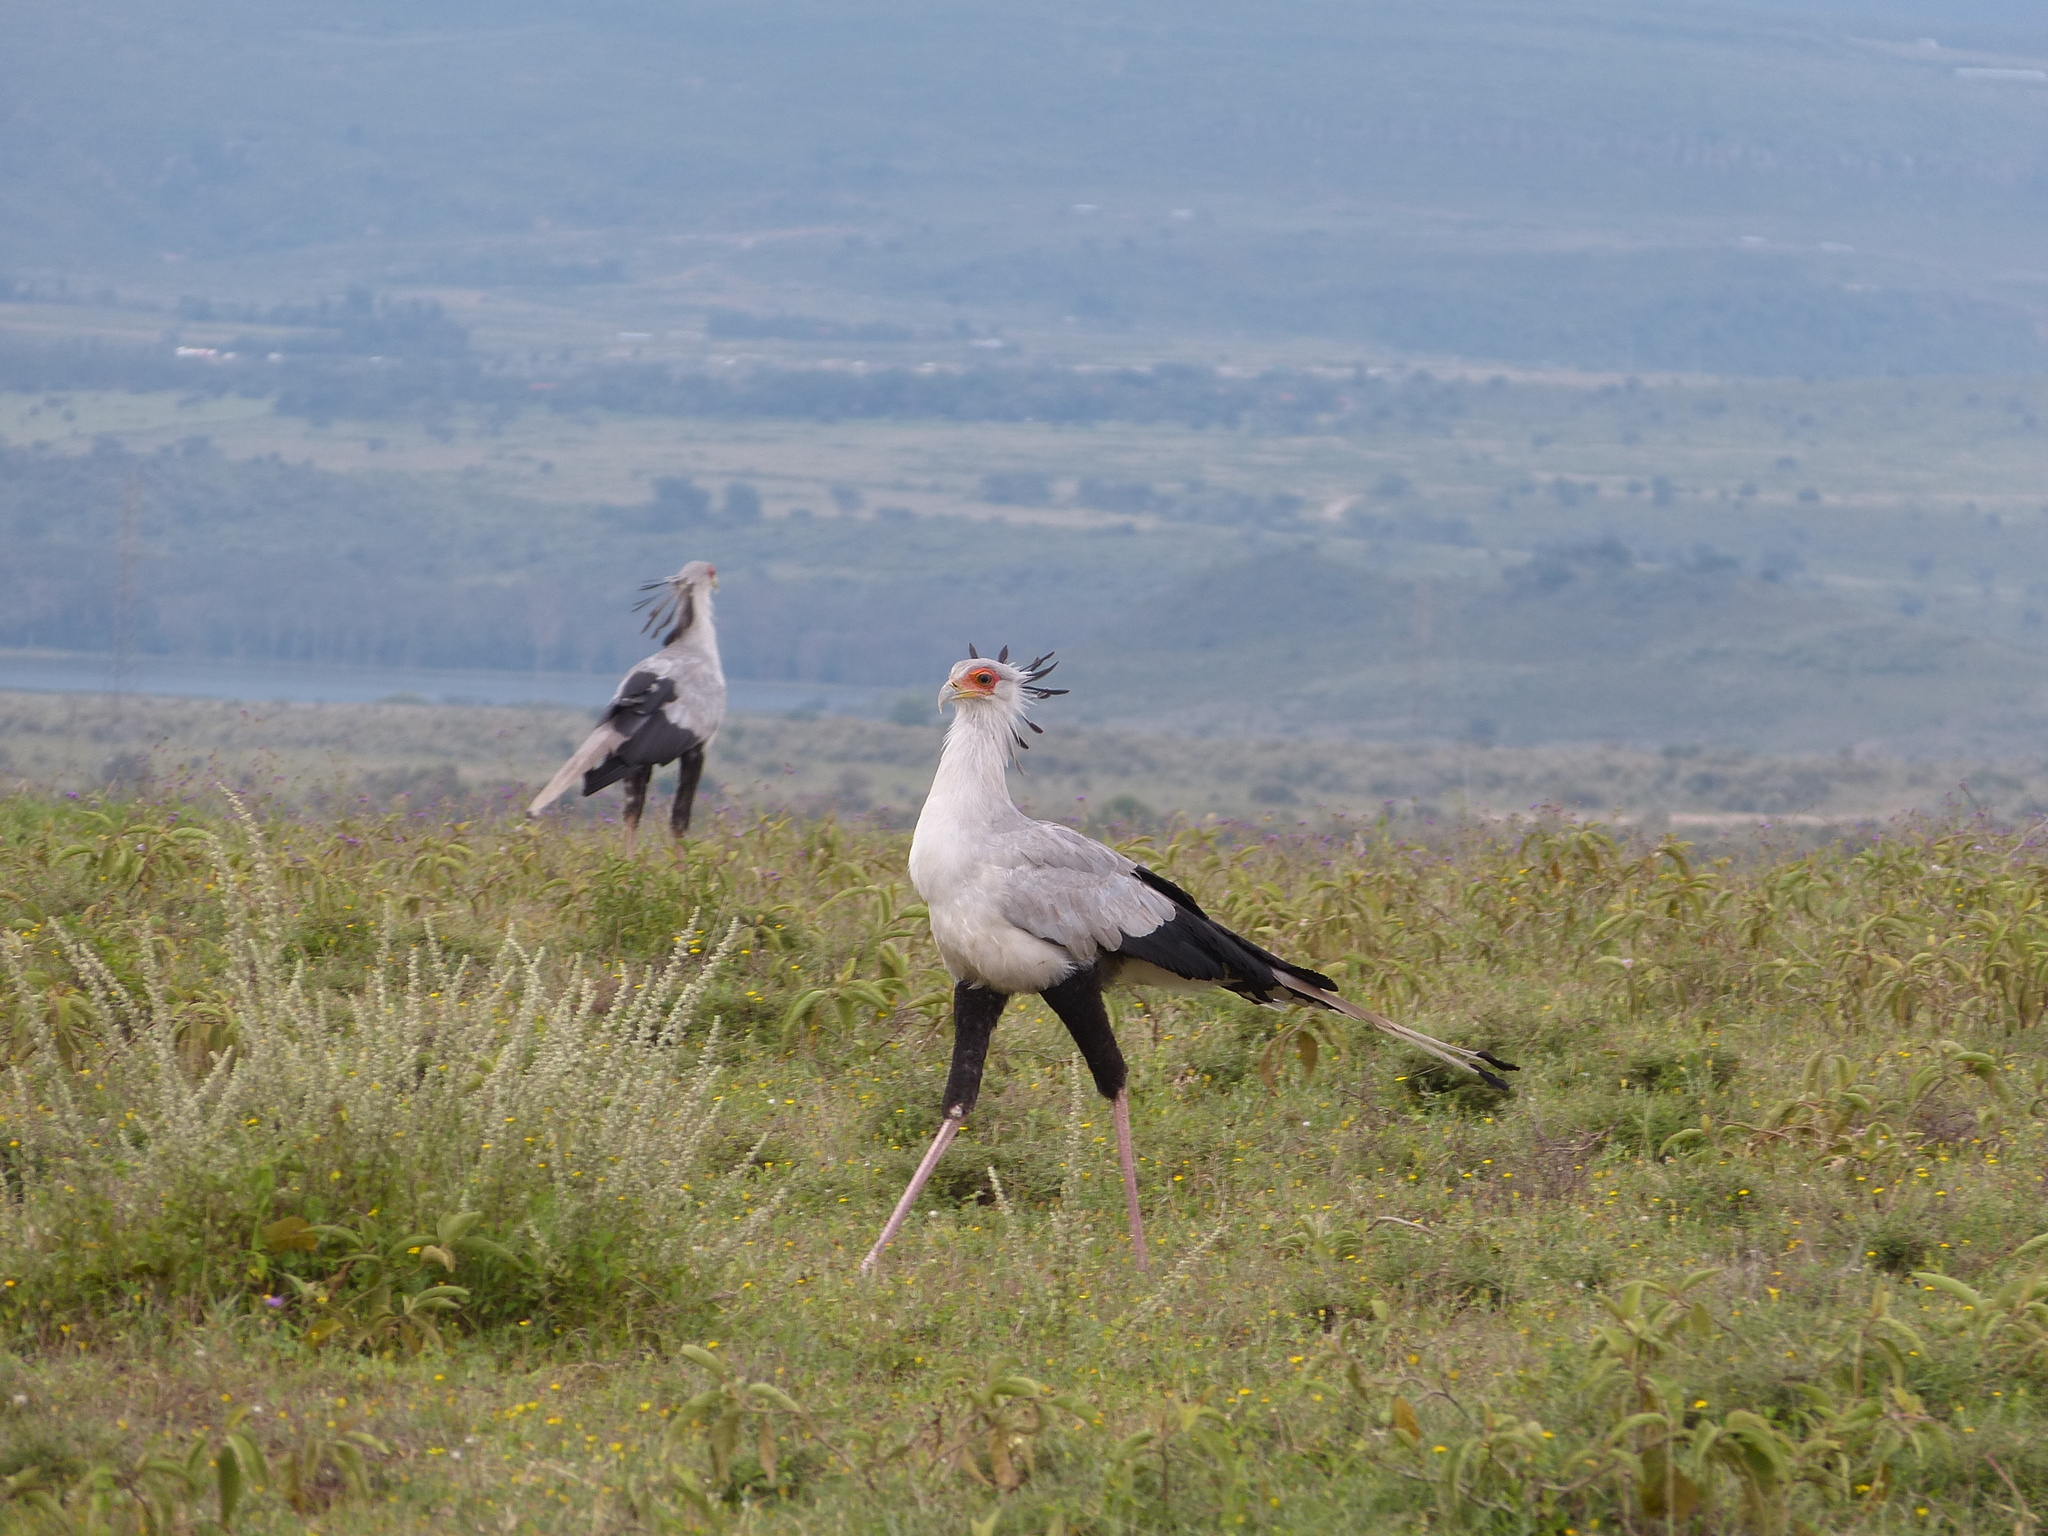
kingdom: Animalia
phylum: Chordata
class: Aves
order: Accipitriformes
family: Sagittariidae
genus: Sagittarius
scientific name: Sagittarius serpentarius
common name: Secretarybird
